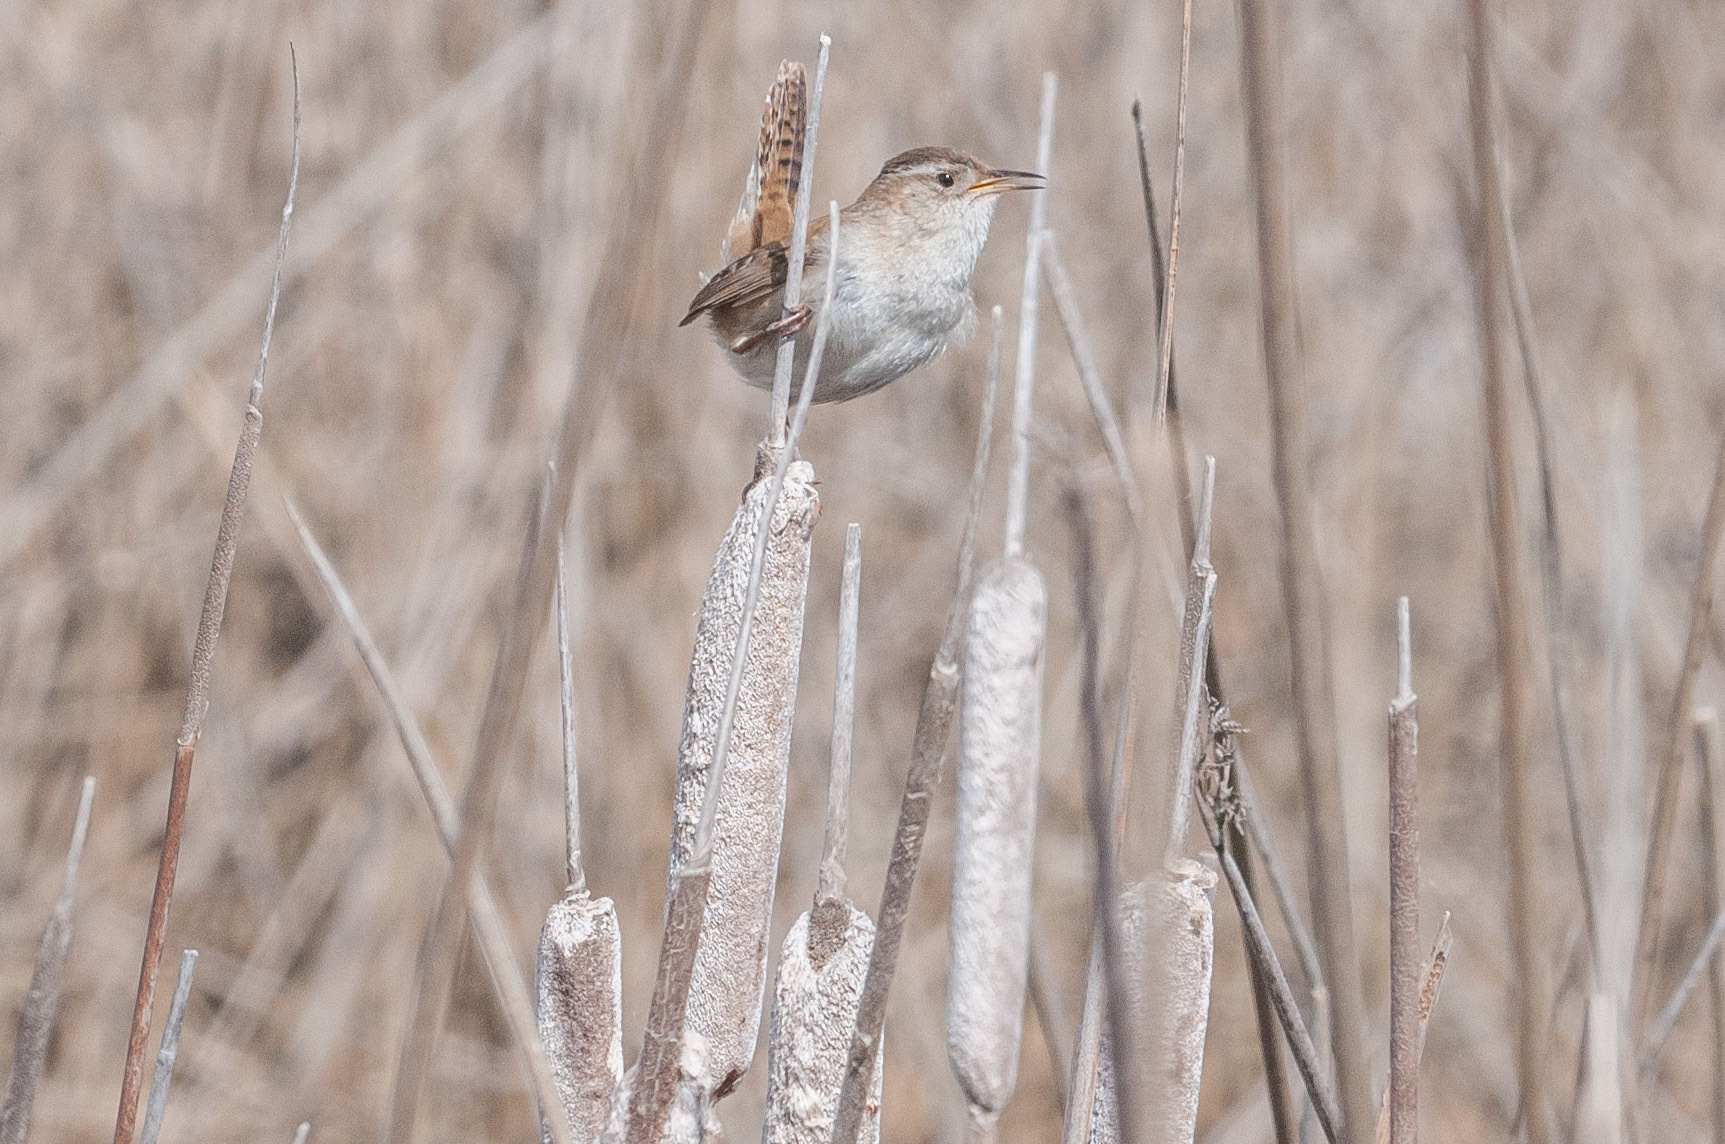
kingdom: Animalia
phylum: Chordata
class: Aves
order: Passeriformes
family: Troglodytidae
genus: Cistothorus
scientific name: Cistothorus palustris
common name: Marsh wren
